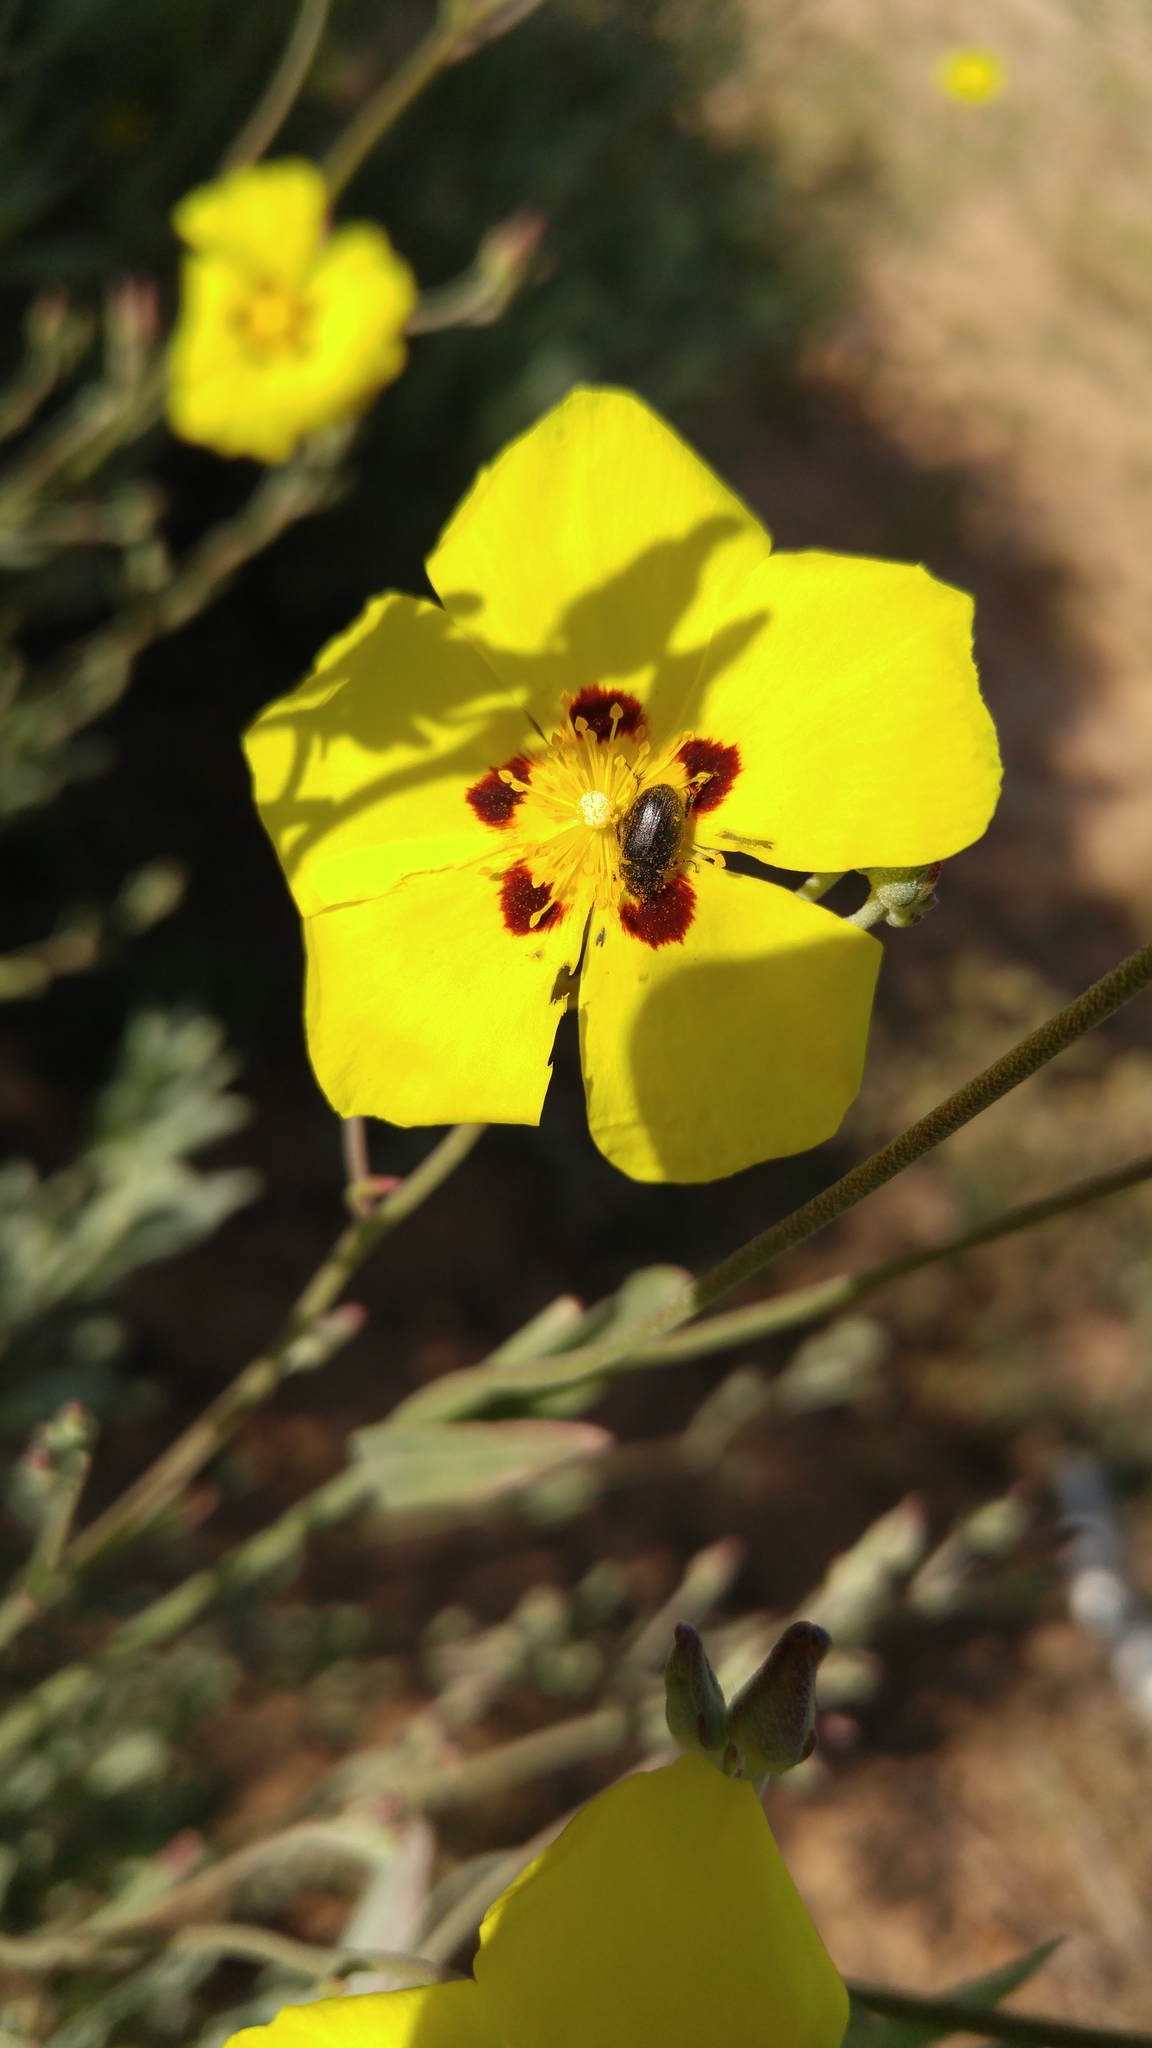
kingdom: Plantae
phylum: Tracheophyta
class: Magnoliopsida
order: Malvales
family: Cistaceae
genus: Halimium
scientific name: Halimium halimifolium
